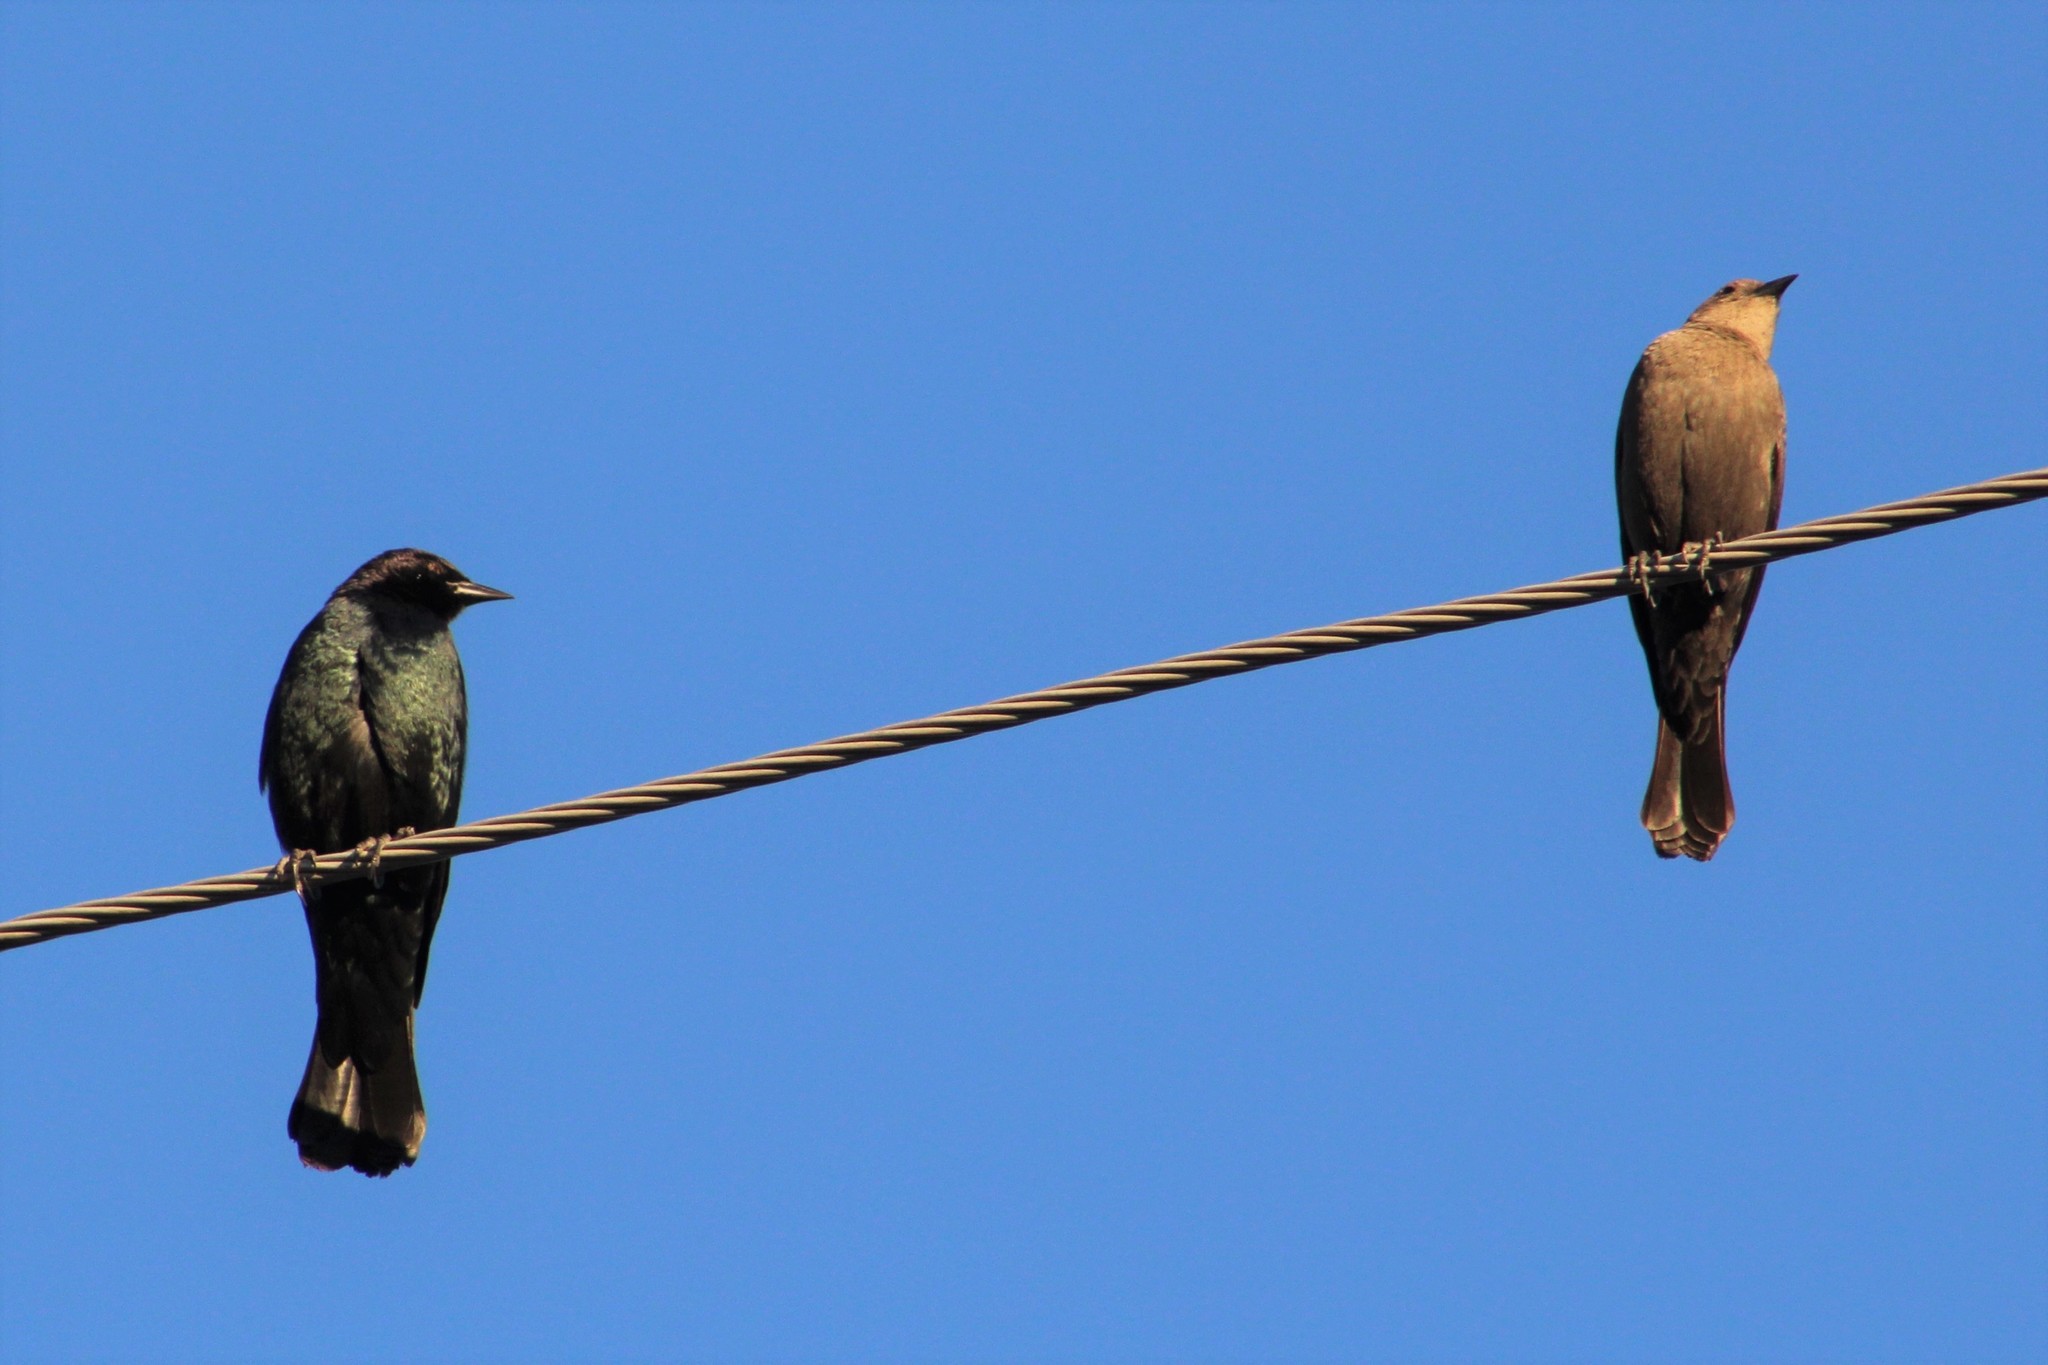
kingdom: Animalia
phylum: Chordata
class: Aves
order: Passeriformes
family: Icteridae
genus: Euphagus
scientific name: Euphagus cyanocephalus
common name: Brewer's blackbird
